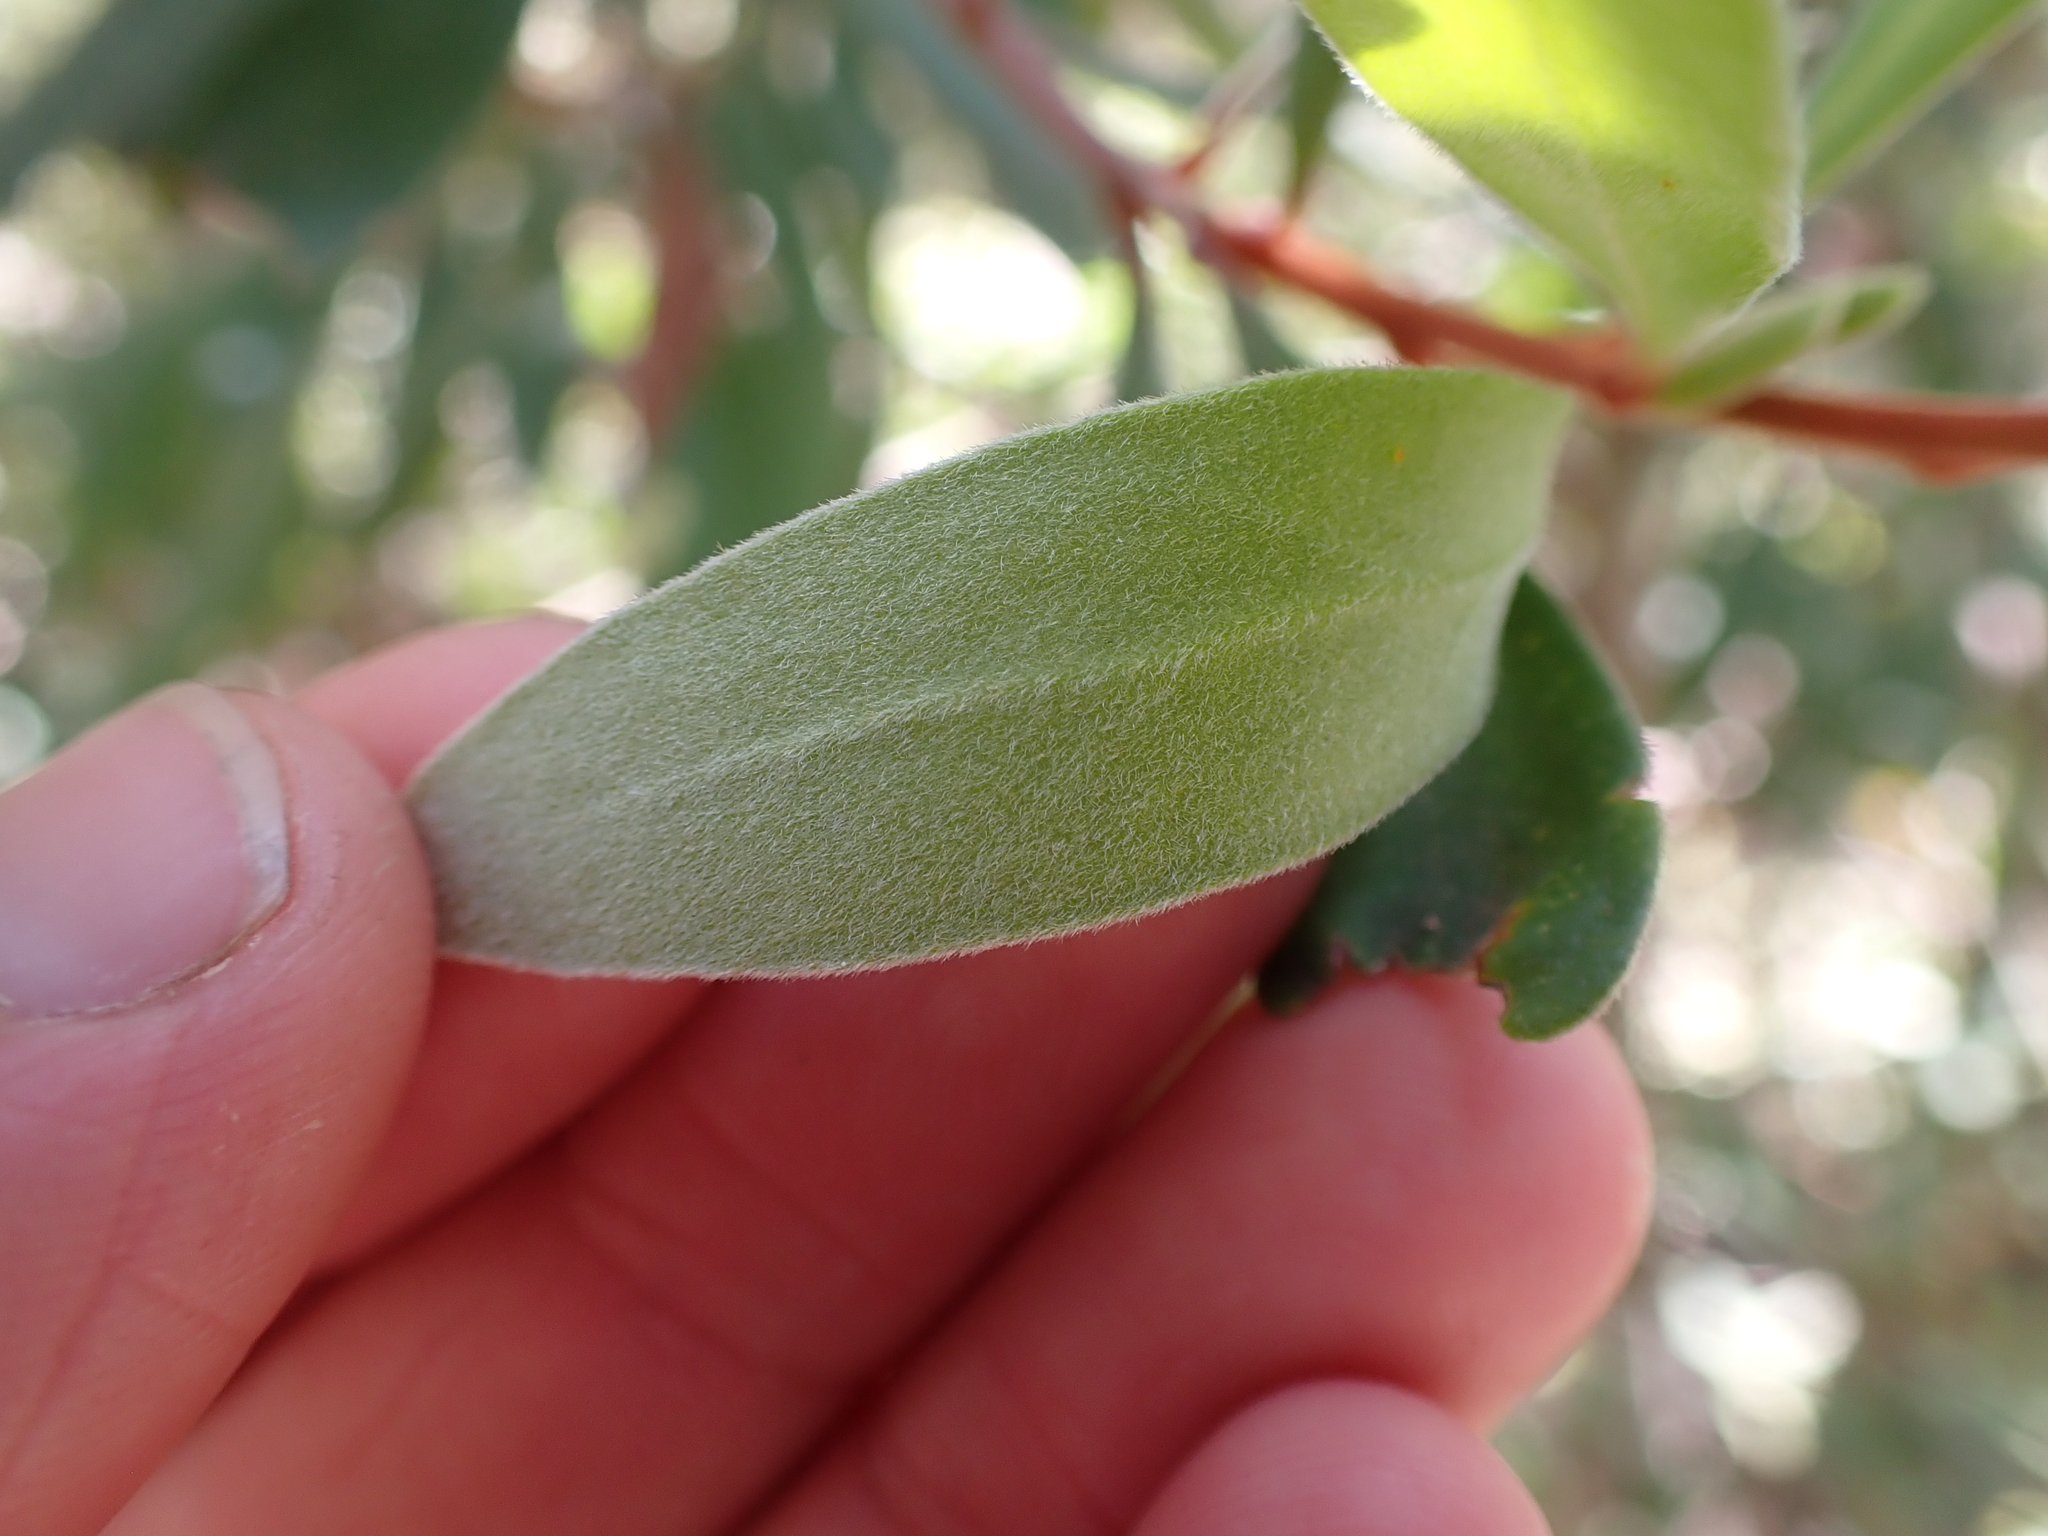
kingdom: Plantae
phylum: Tracheophyta
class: Magnoliopsida
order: Proteales
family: Proteaceae
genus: Persoonia
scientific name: Persoonia subvelutina
